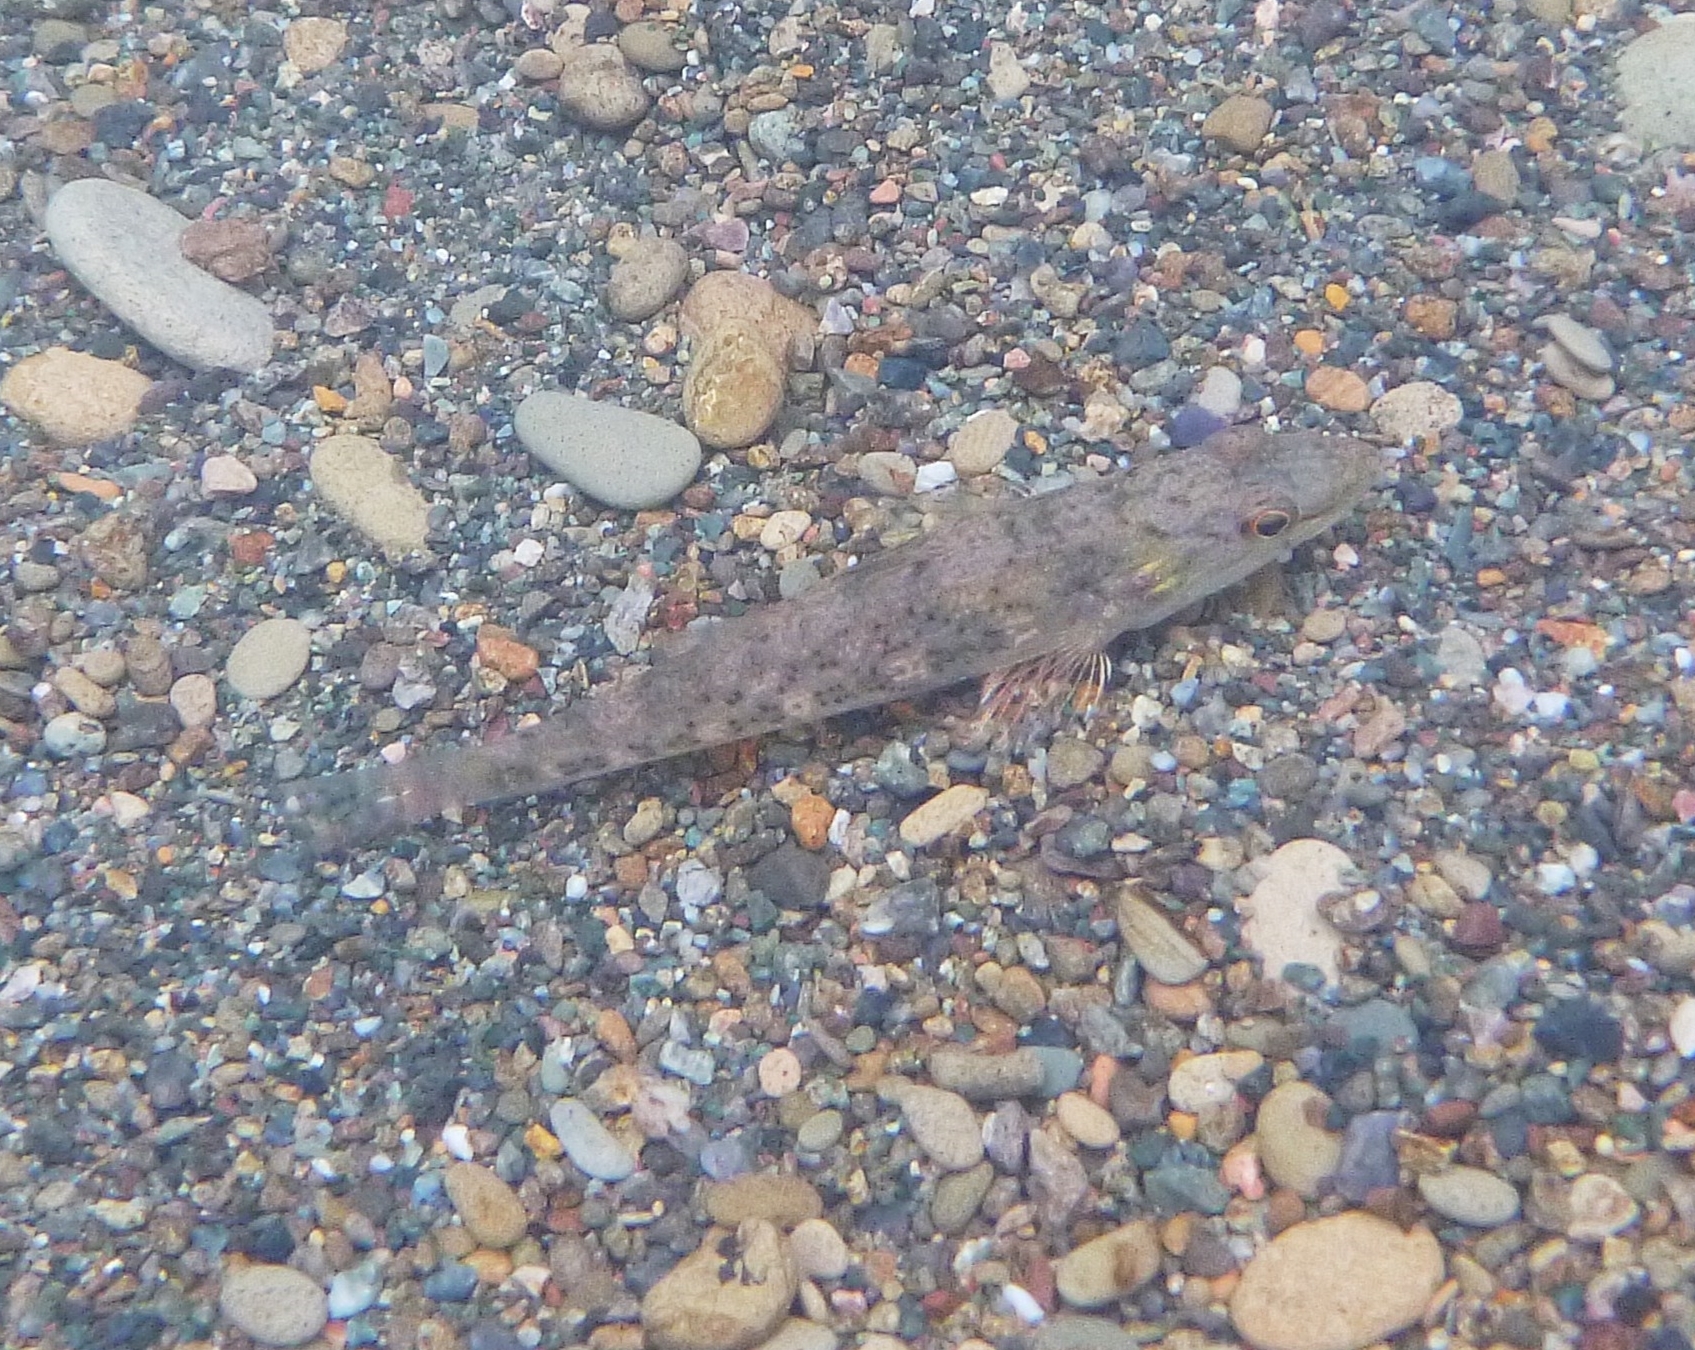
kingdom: Animalia
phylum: Chordata
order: Perciformes
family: Eleotridae
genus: Gobiomorus
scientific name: Gobiomorus maculatus
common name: Sleeper
